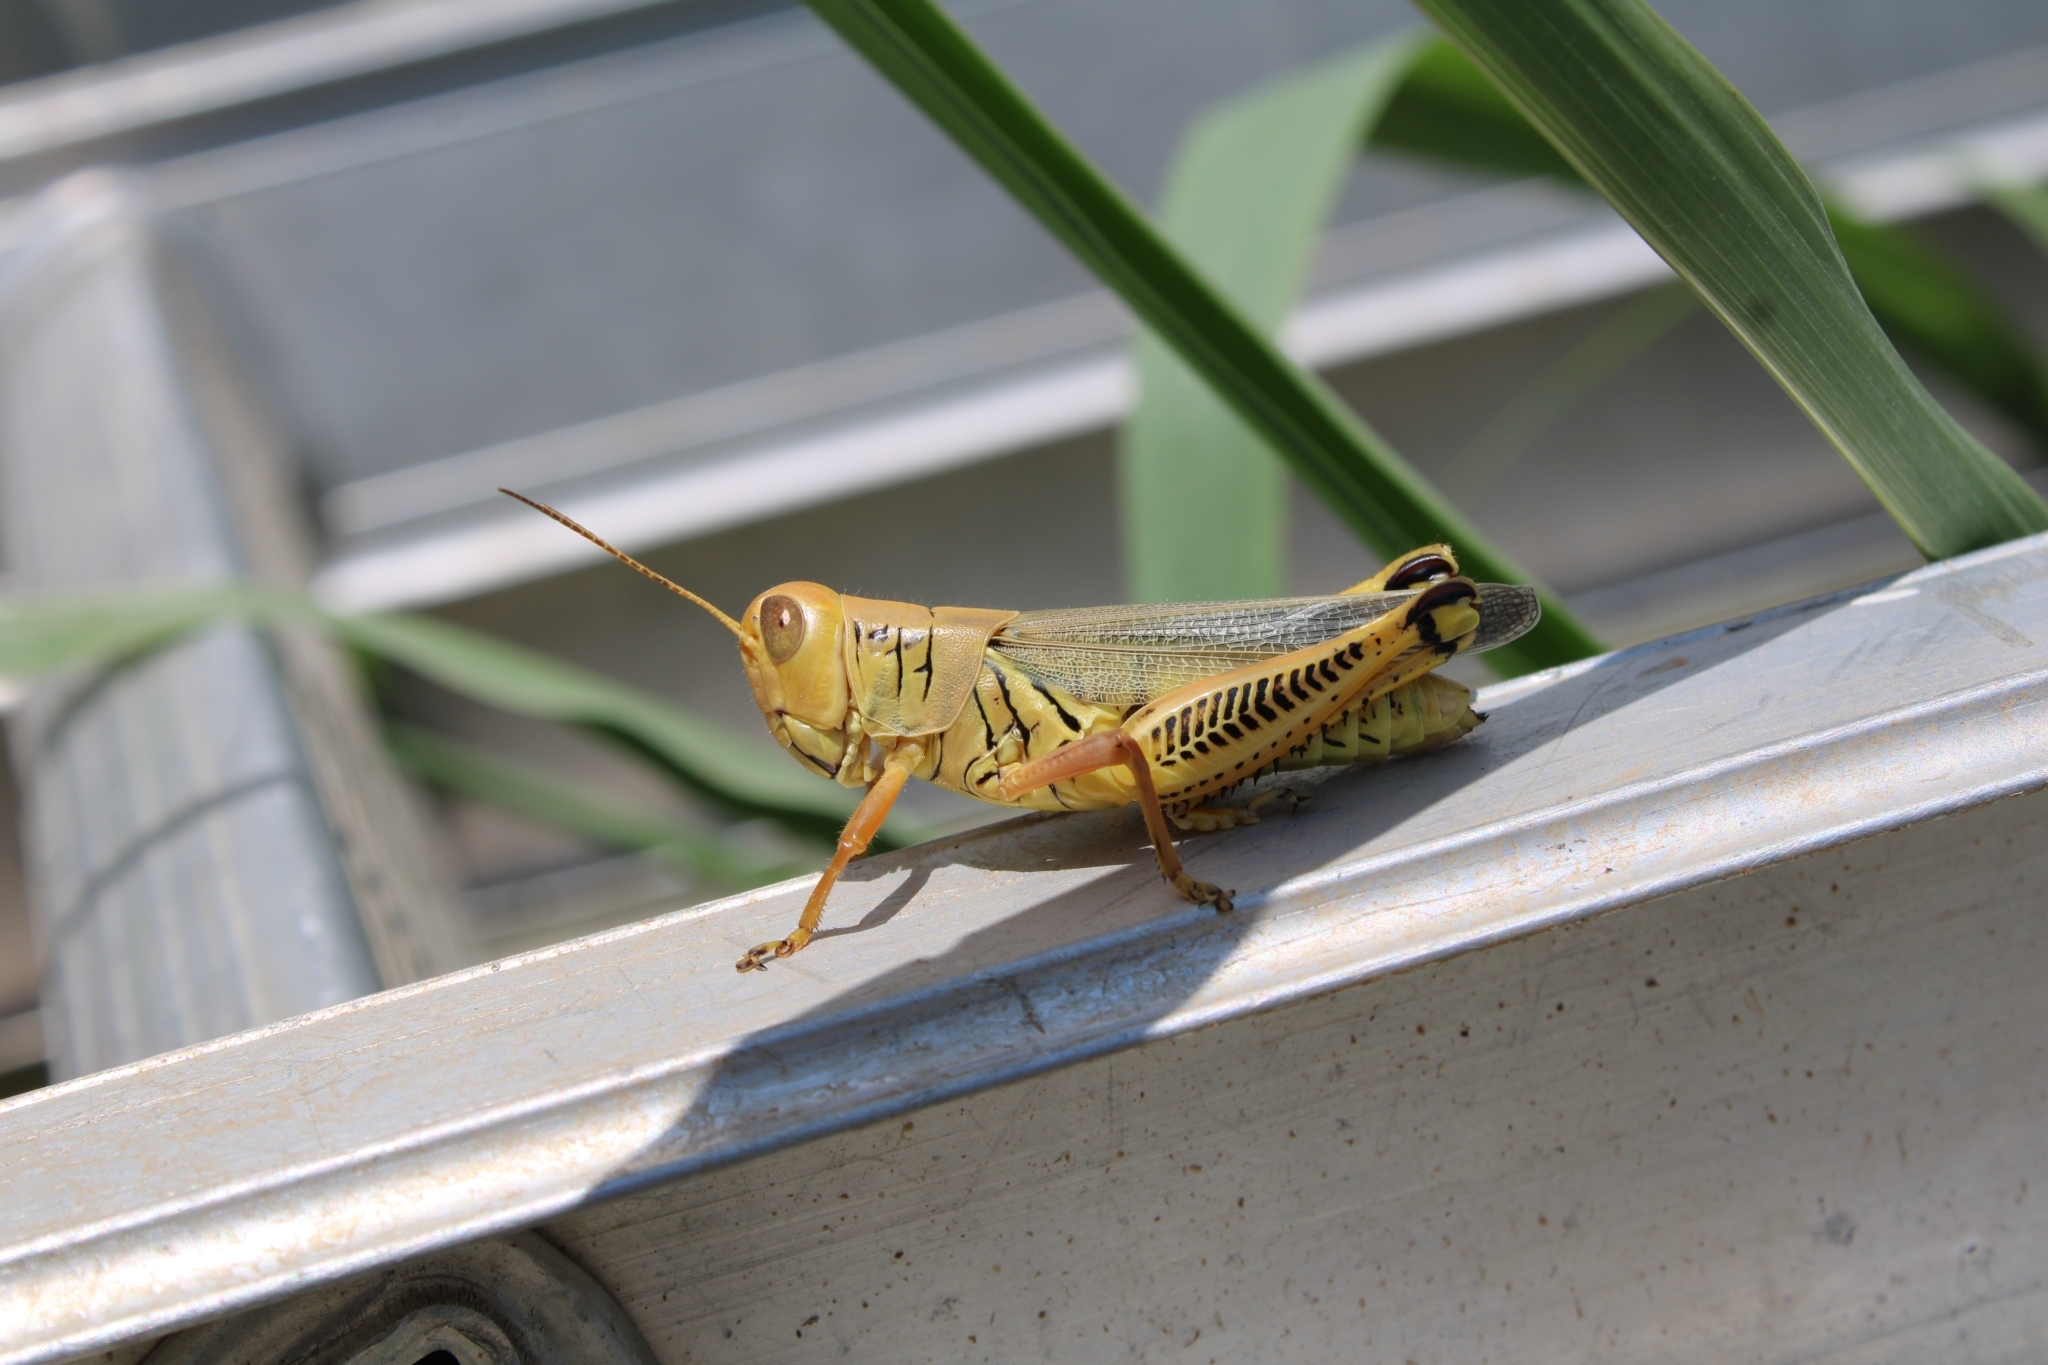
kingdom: Animalia
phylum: Arthropoda
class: Insecta
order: Orthoptera
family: Acrididae
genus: Melanoplus
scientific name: Melanoplus differentialis
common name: Differential grasshopper
